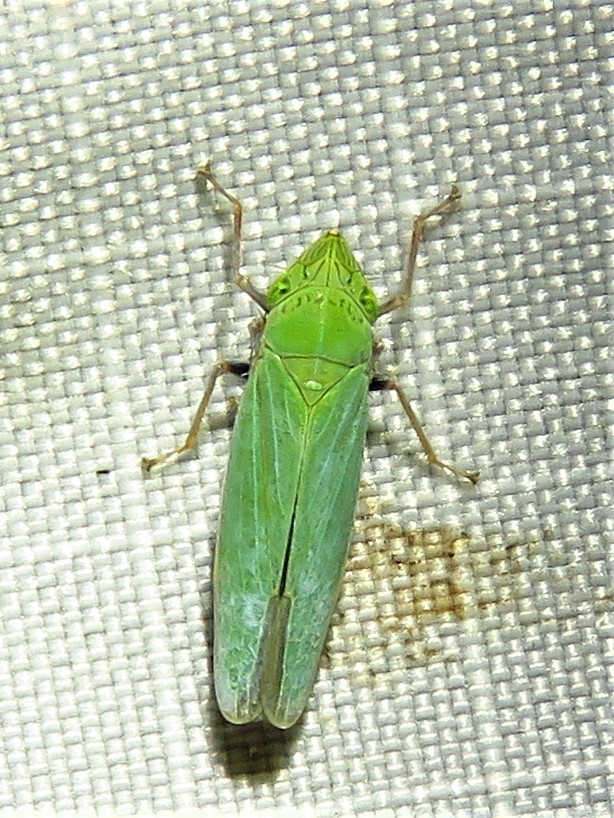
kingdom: Animalia
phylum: Arthropoda
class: Insecta
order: Hemiptera
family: Cicadellidae
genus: Draeculacephala
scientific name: Draeculacephala robinsoni
